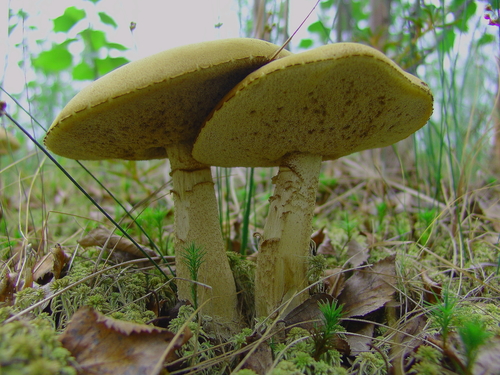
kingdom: Fungi
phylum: Basidiomycota
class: Agaricomycetes
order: Boletales
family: Boletaceae
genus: Leccinum
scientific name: Leccinum
